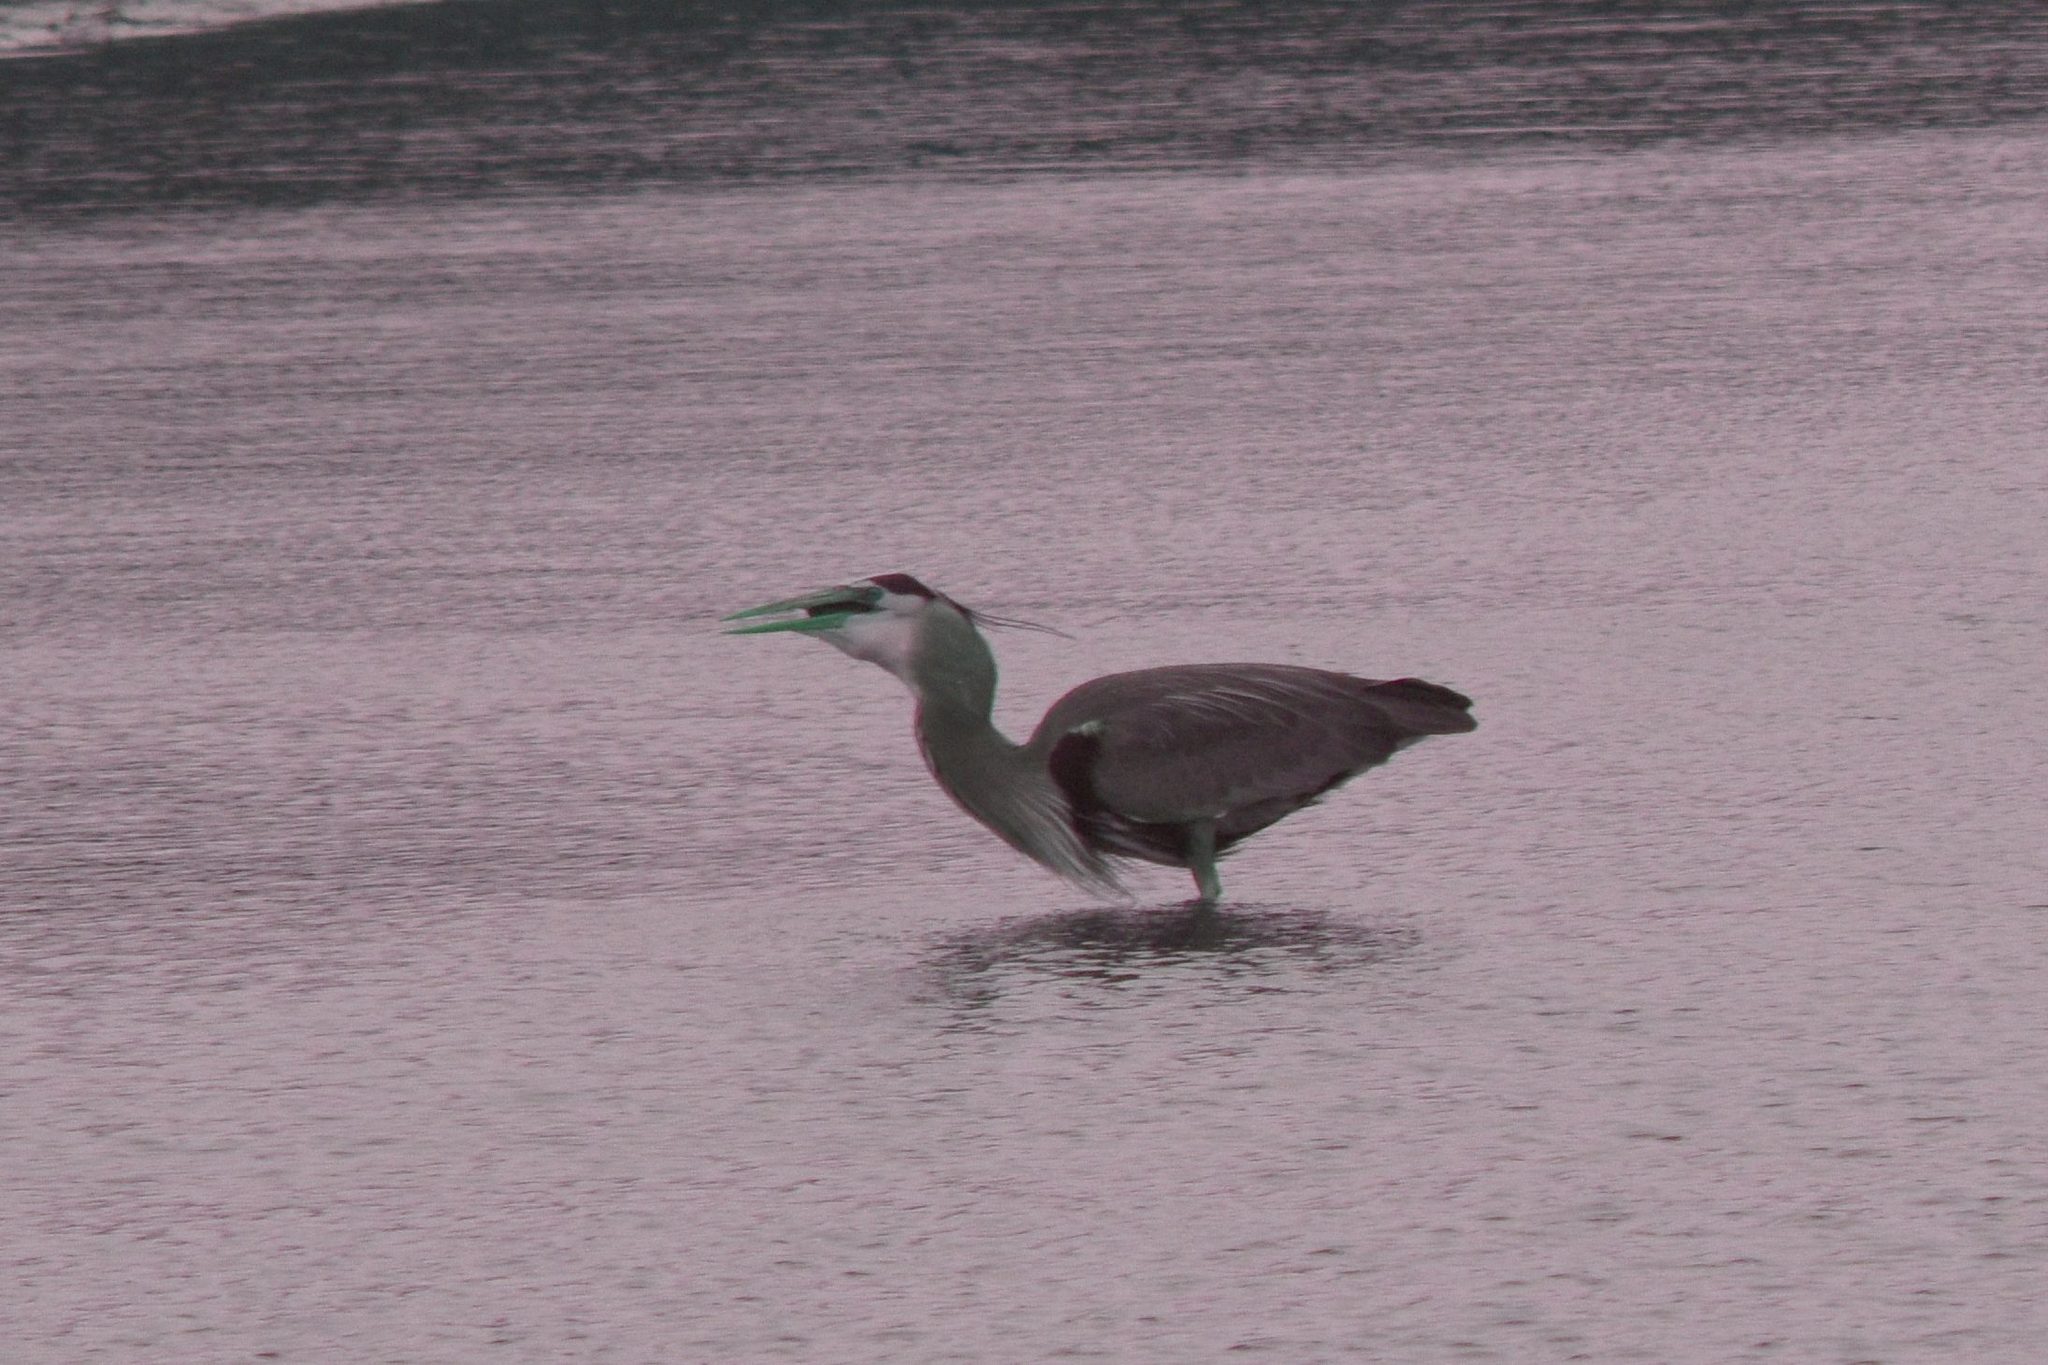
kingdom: Animalia
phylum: Chordata
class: Aves
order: Pelecaniformes
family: Ardeidae
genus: Ardea
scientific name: Ardea herodias
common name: Great blue heron
